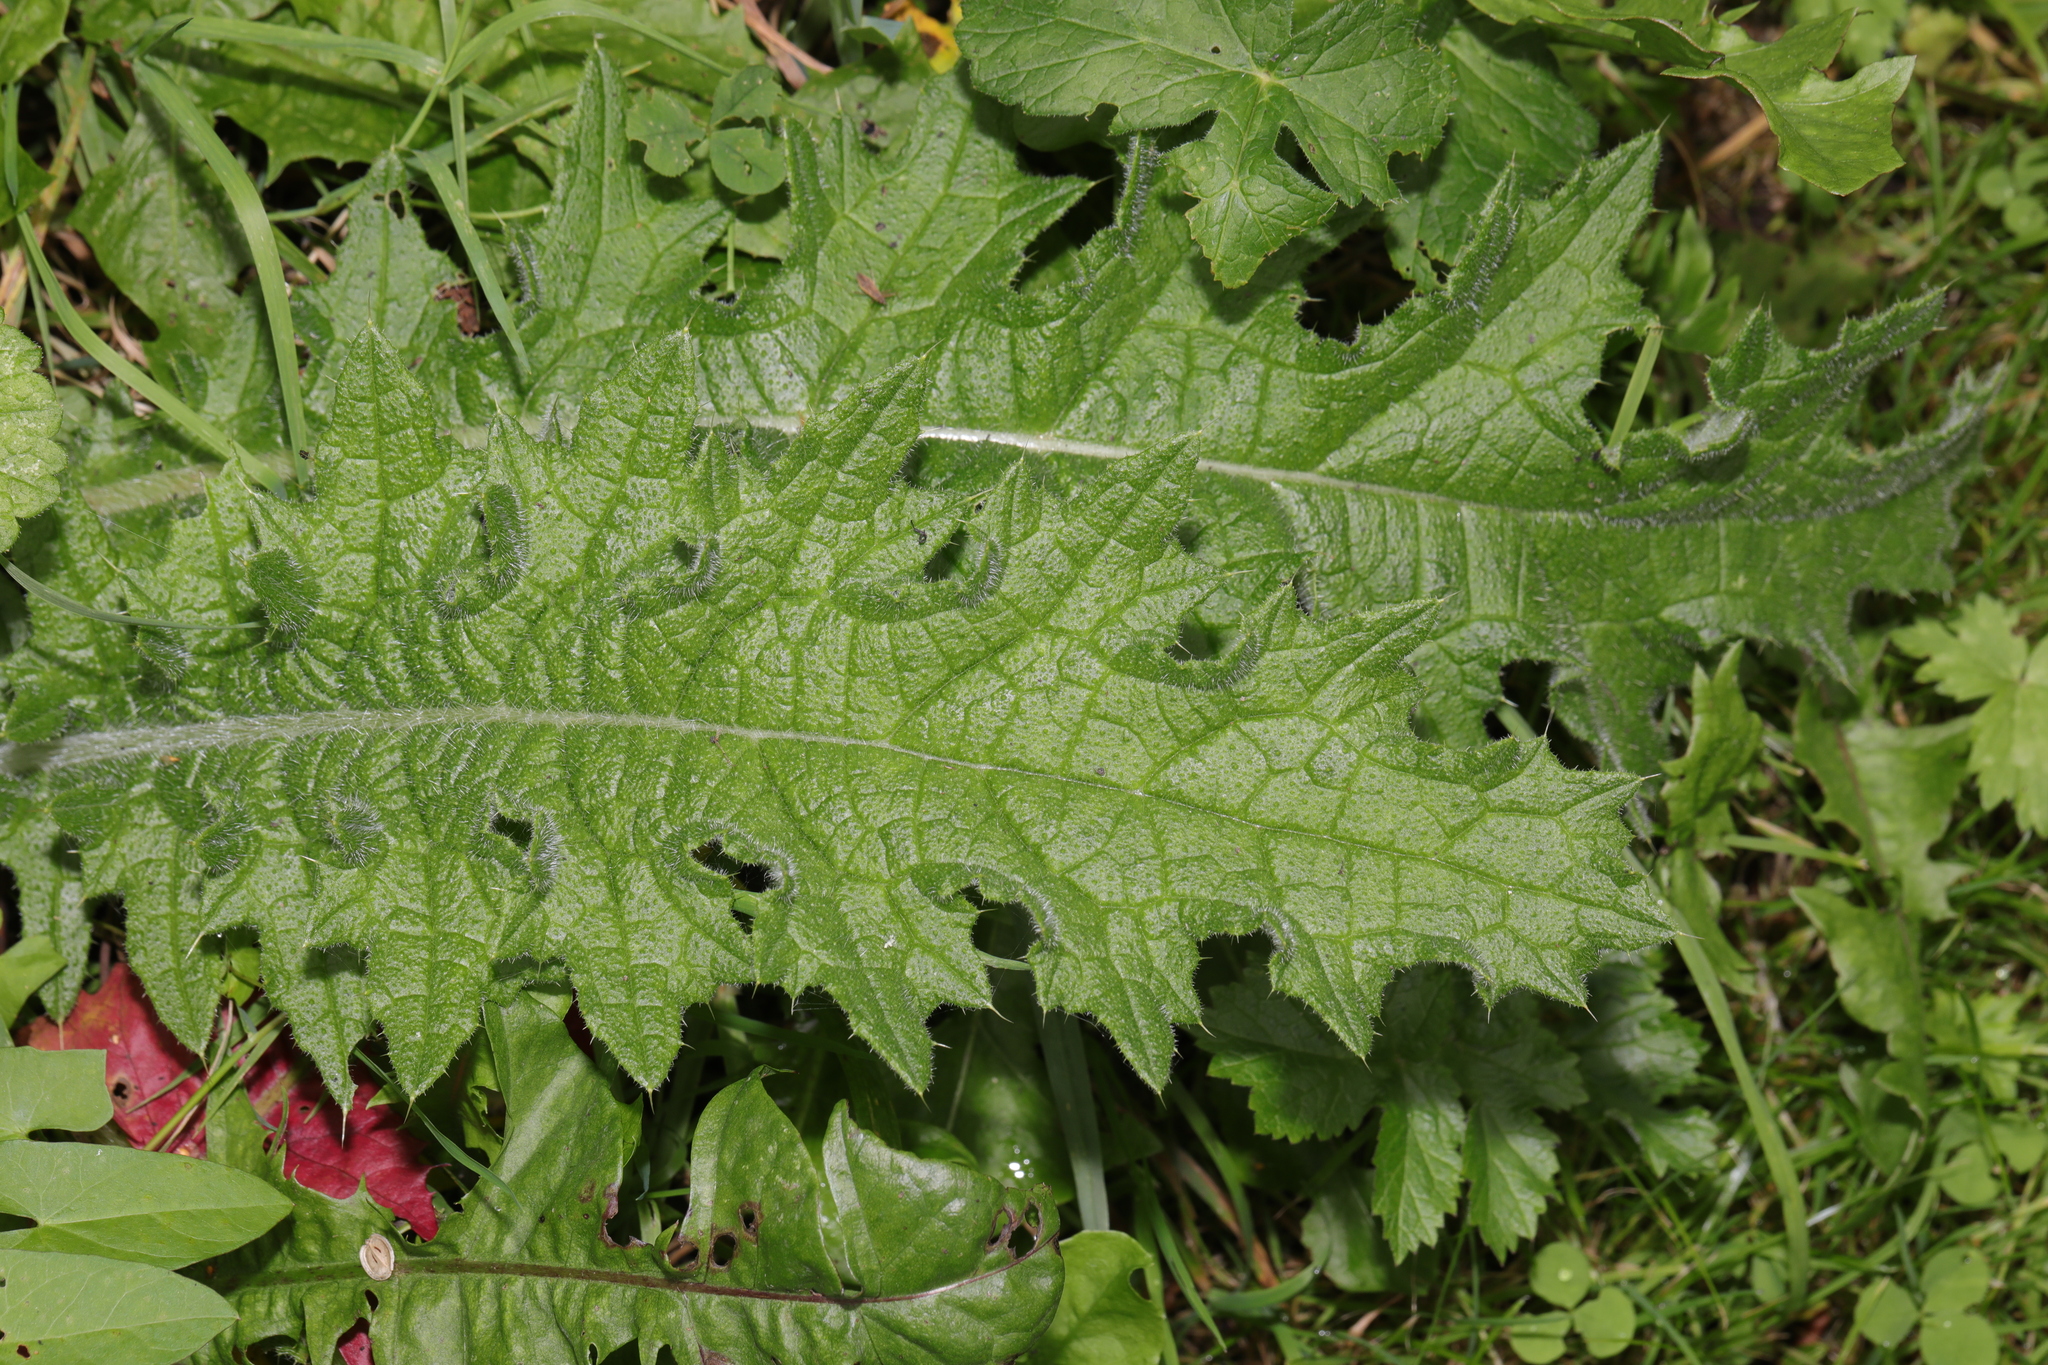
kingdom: Plantae
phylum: Tracheophyta
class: Magnoliopsida
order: Asterales
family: Asteraceae
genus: Cirsium
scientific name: Cirsium vulgare
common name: Bull thistle
